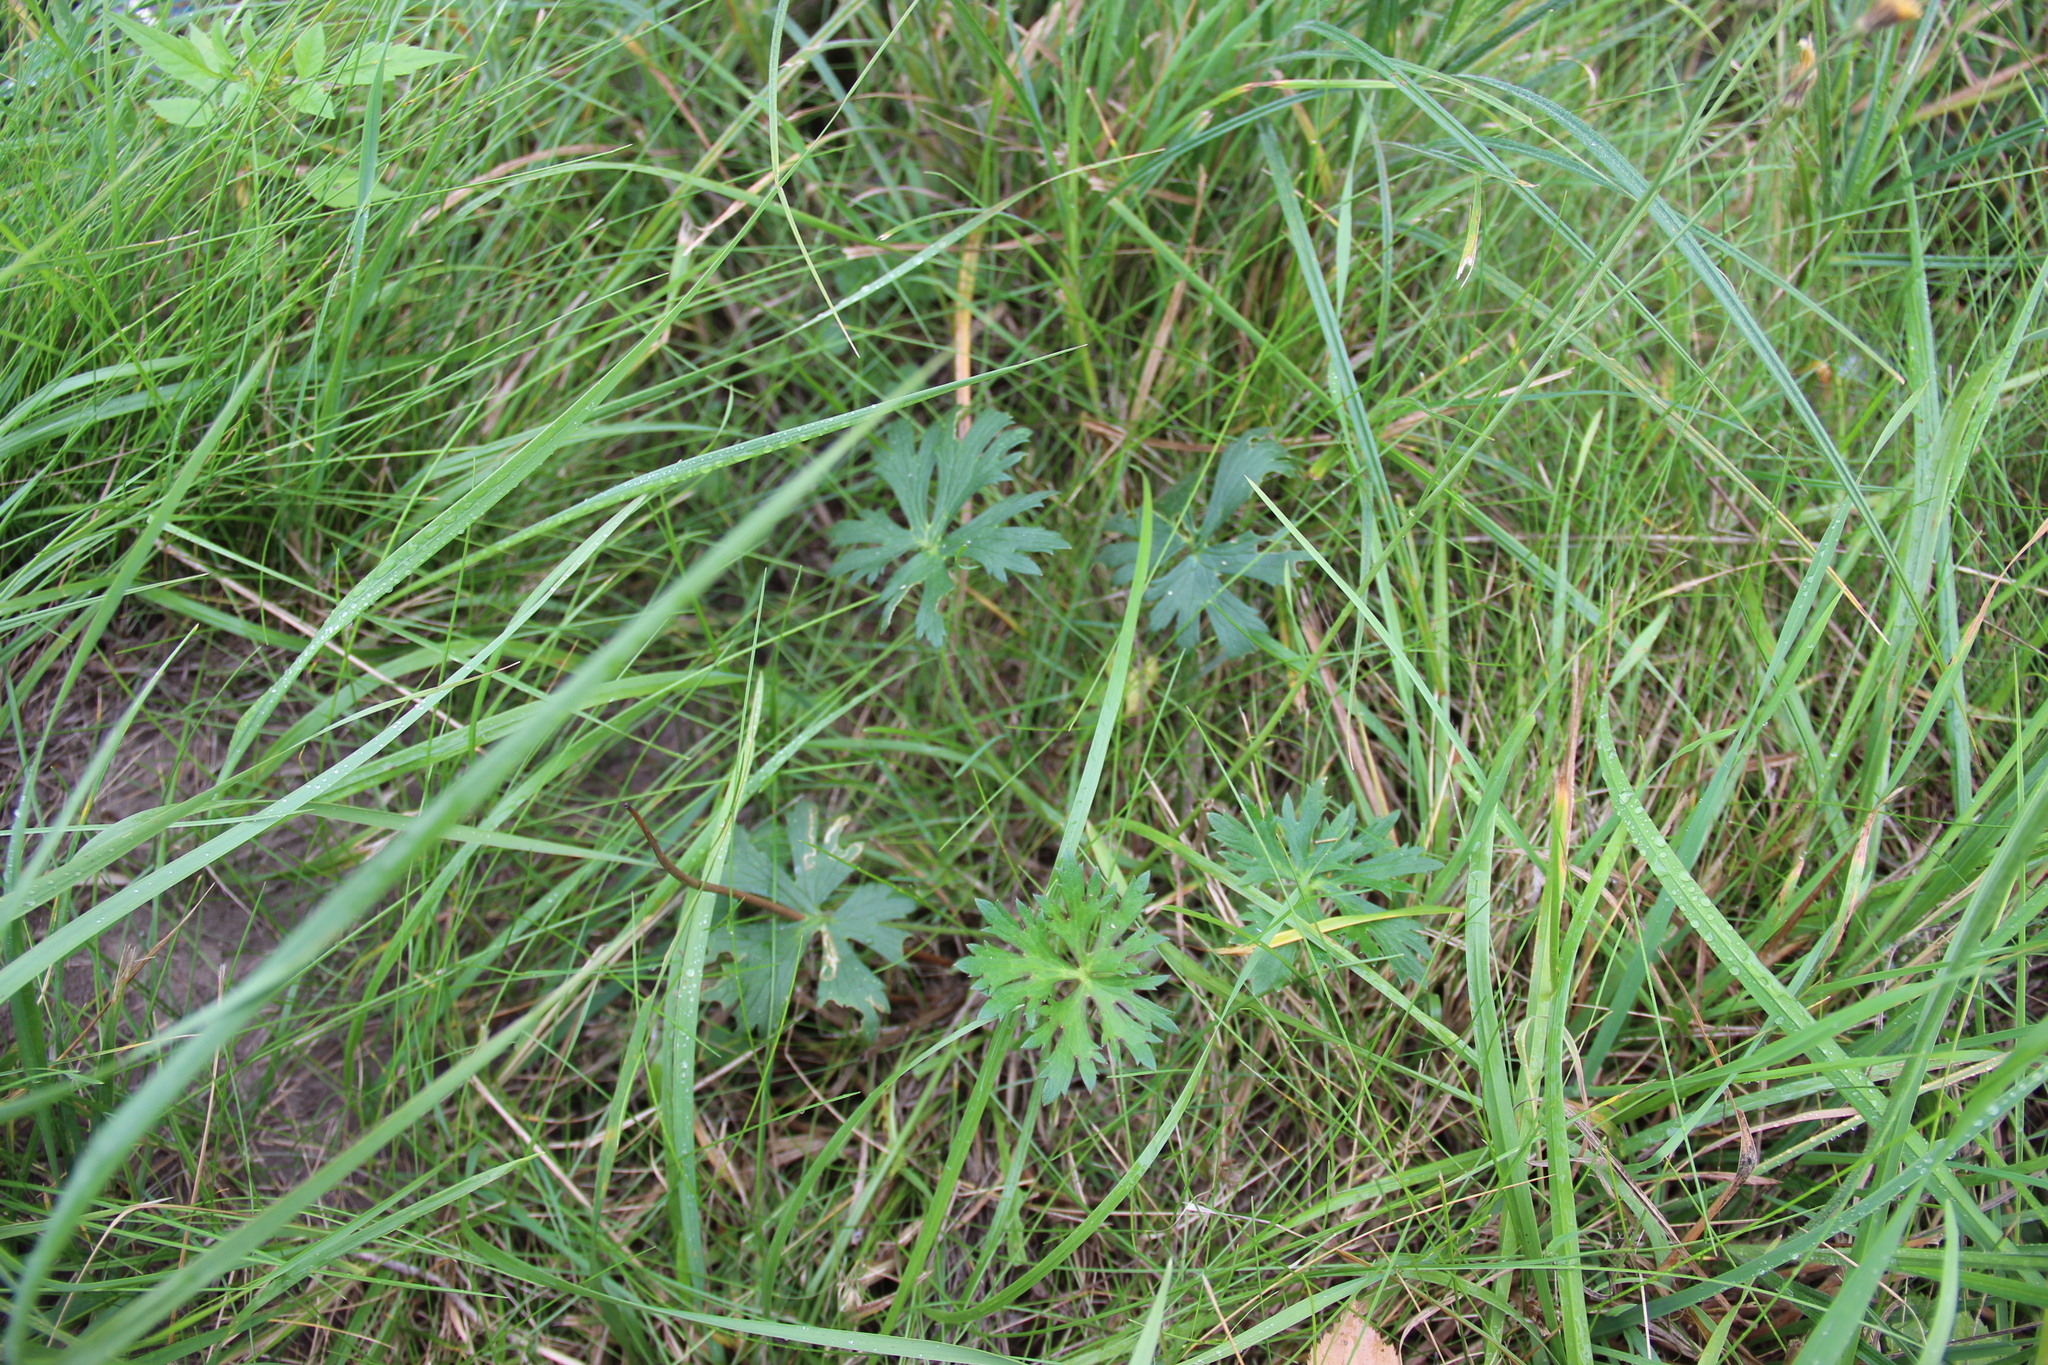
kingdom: Plantae
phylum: Tracheophyta
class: Magnoliopsida
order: Ranunculales
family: Ranunculaceae
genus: Ranunculus
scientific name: Ranunculus polyanthemos
